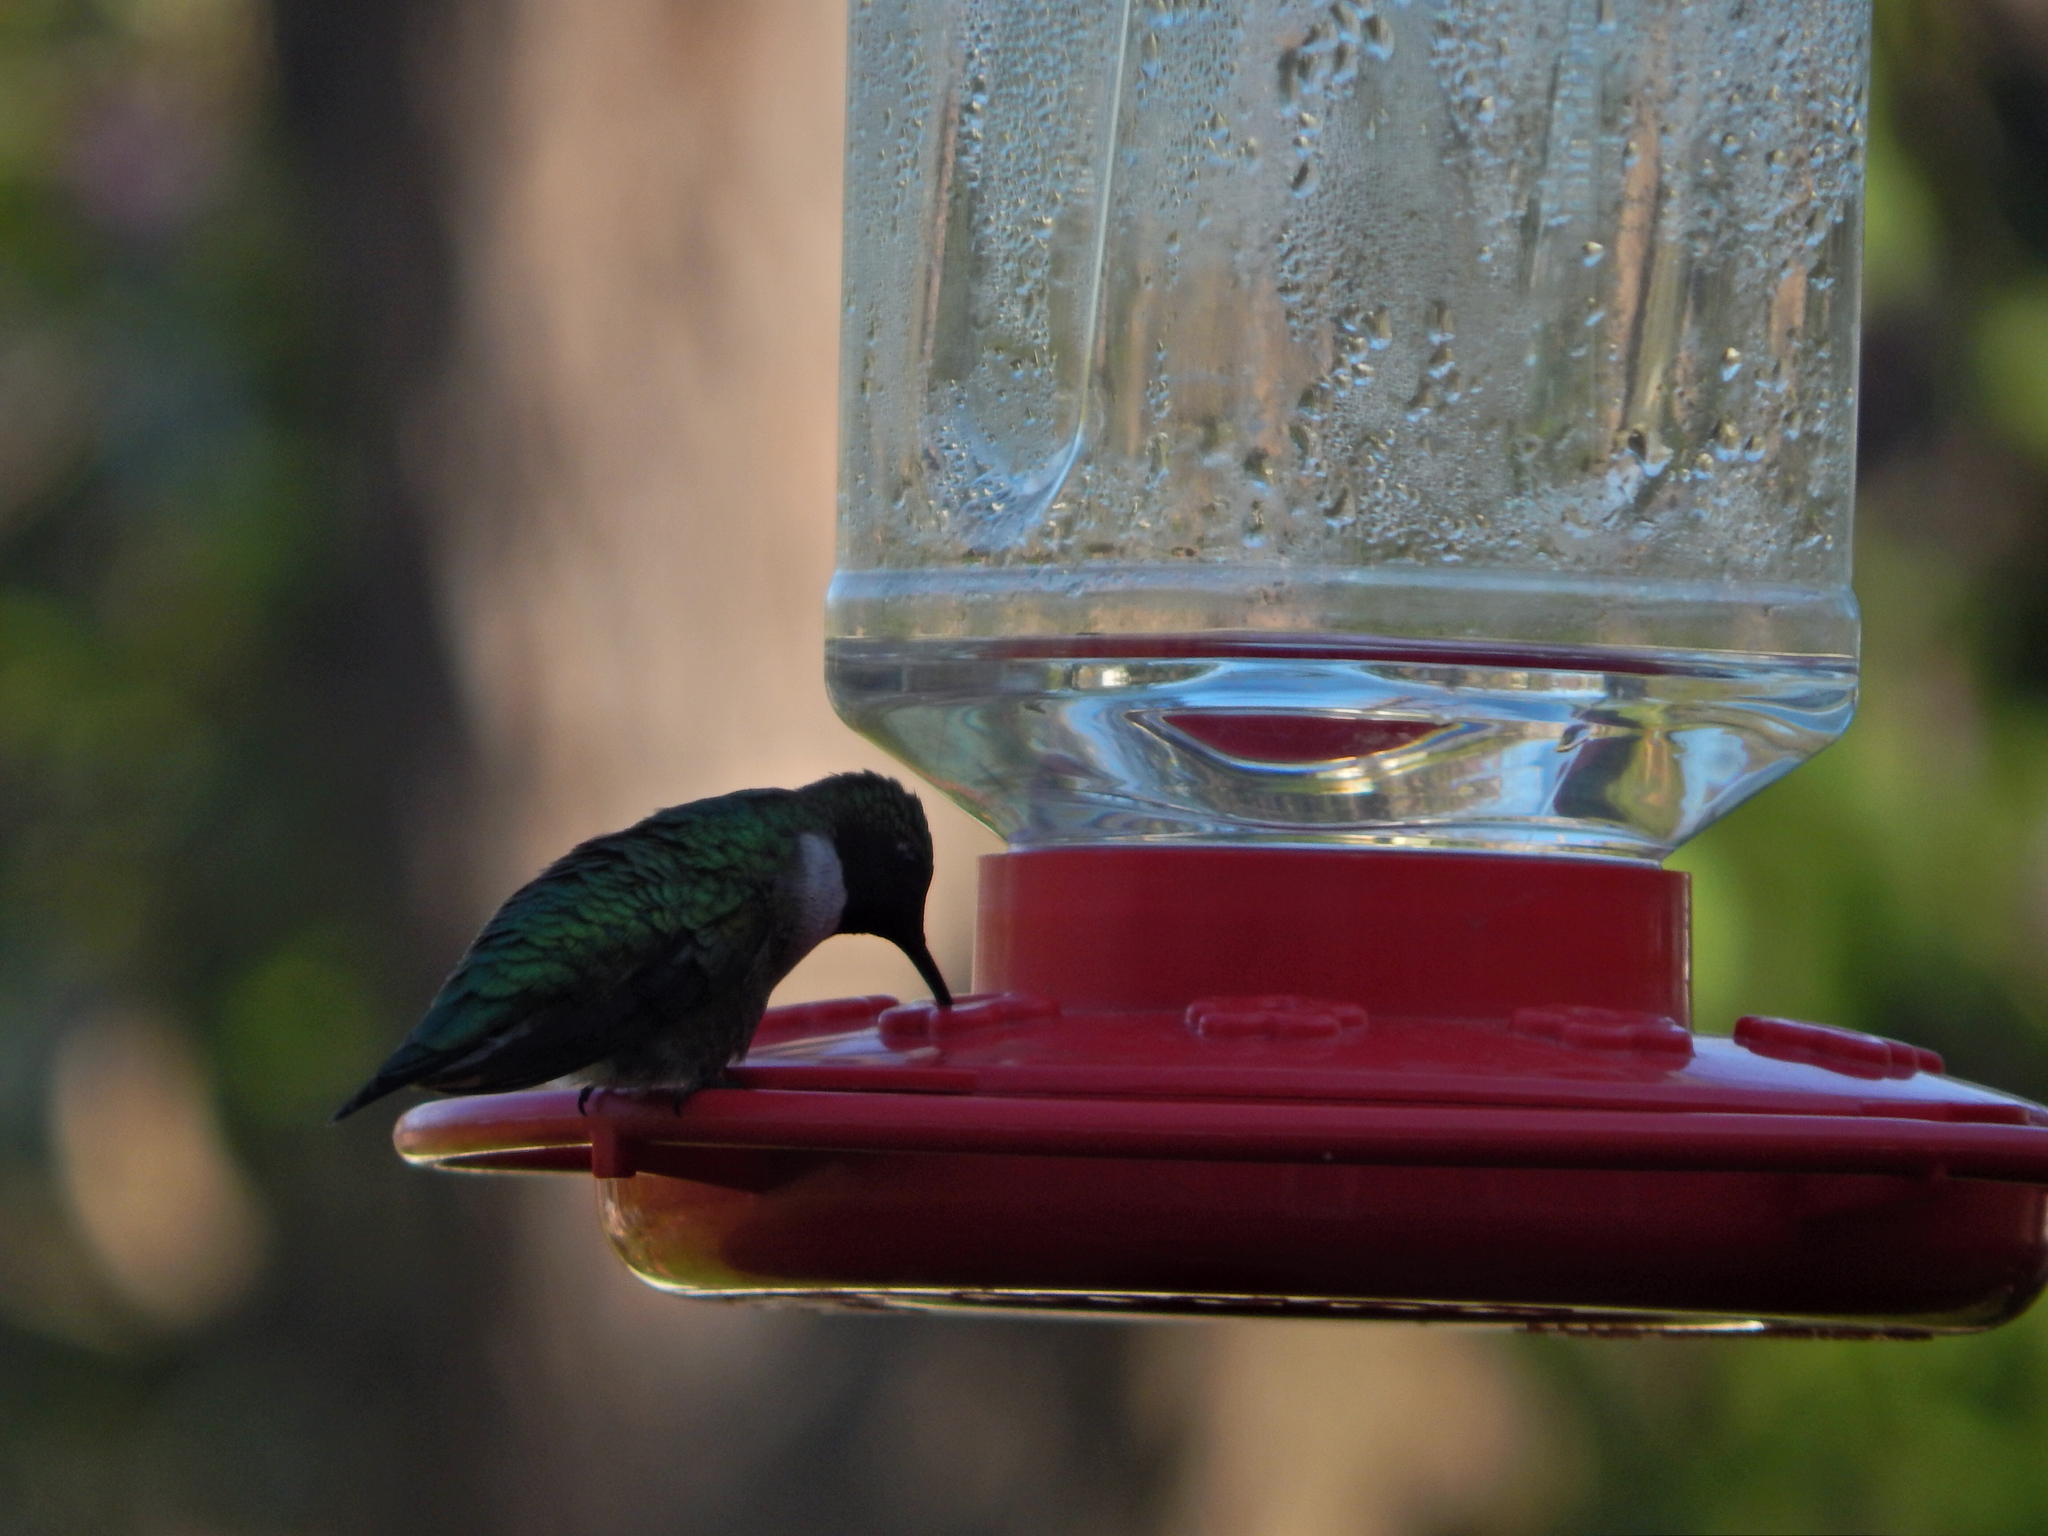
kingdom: Animalia
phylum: Chordata
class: Aves
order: Apodiformes
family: Trochilidae
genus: Archilochus
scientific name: Archilochus colubris
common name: Ruby-throated hummingbird
